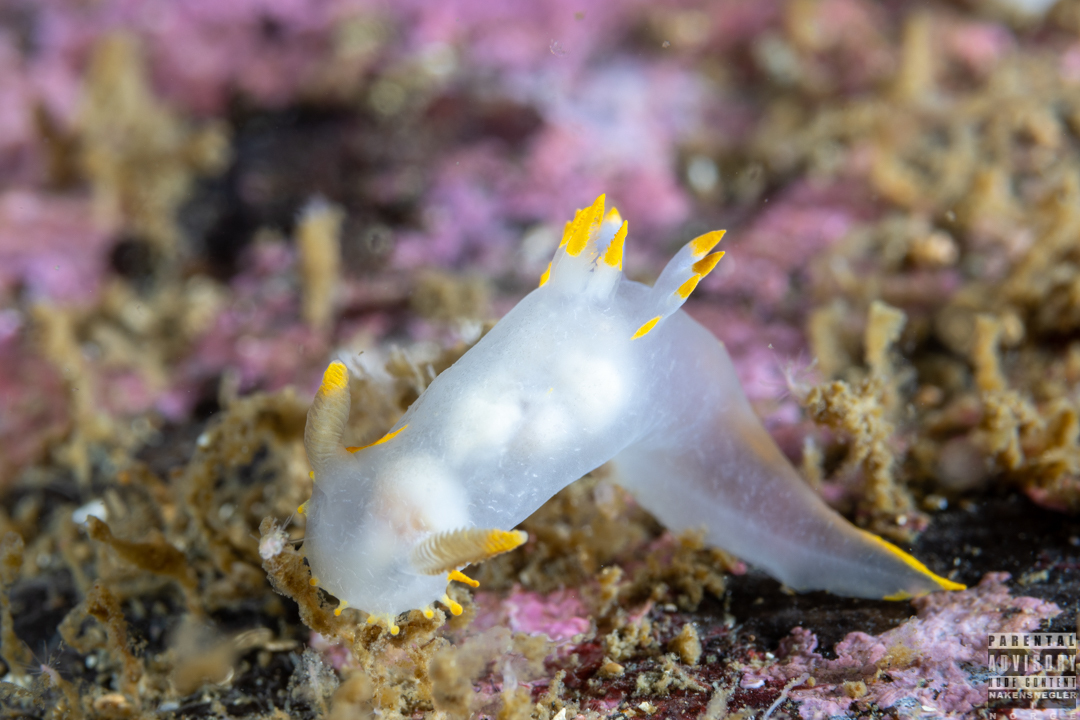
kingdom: Animalia
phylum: Mollusca
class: Gastropoda
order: Nudibranchia
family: Polyceridae
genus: Polycera
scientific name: Polycera faeroensis
